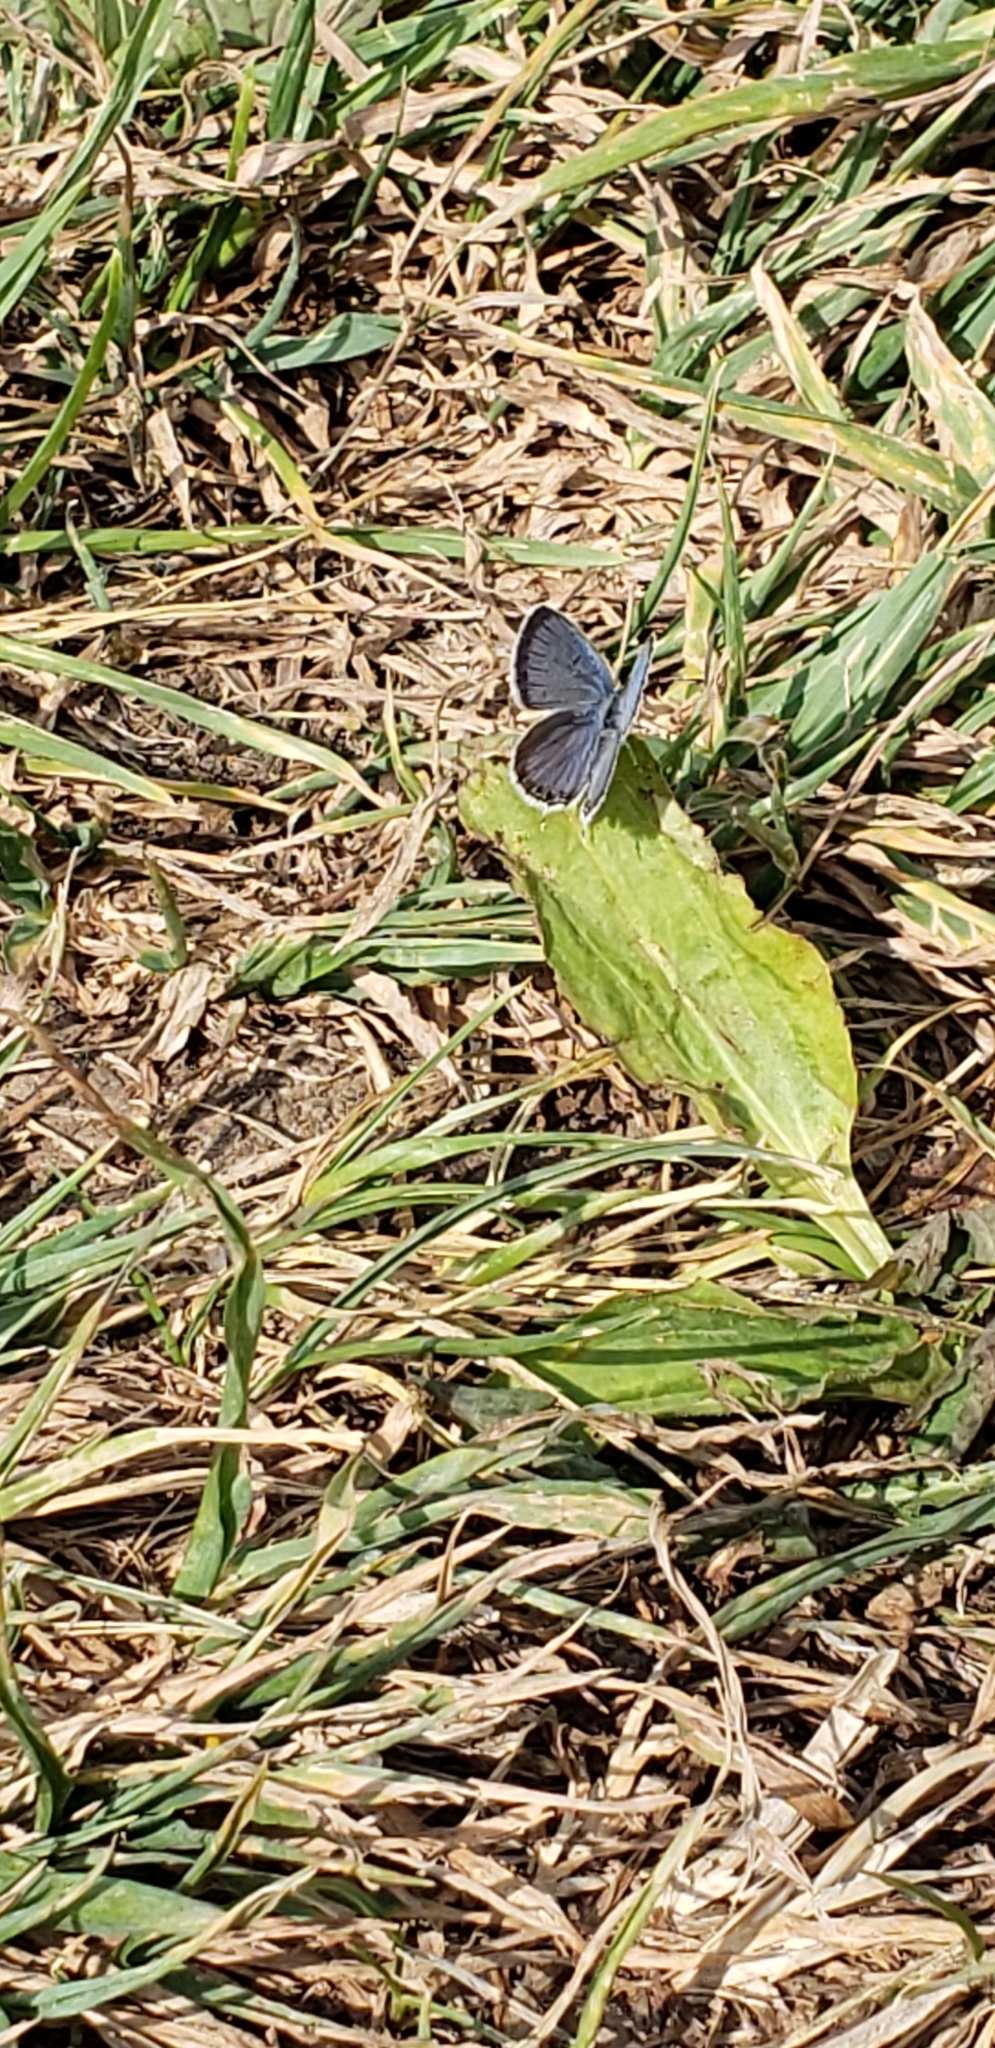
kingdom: Animalia
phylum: Arthropoda
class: Insecta
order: Lepidoptera
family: Lycaenidae
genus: Elkalyce
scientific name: Elkalyce comyntas
